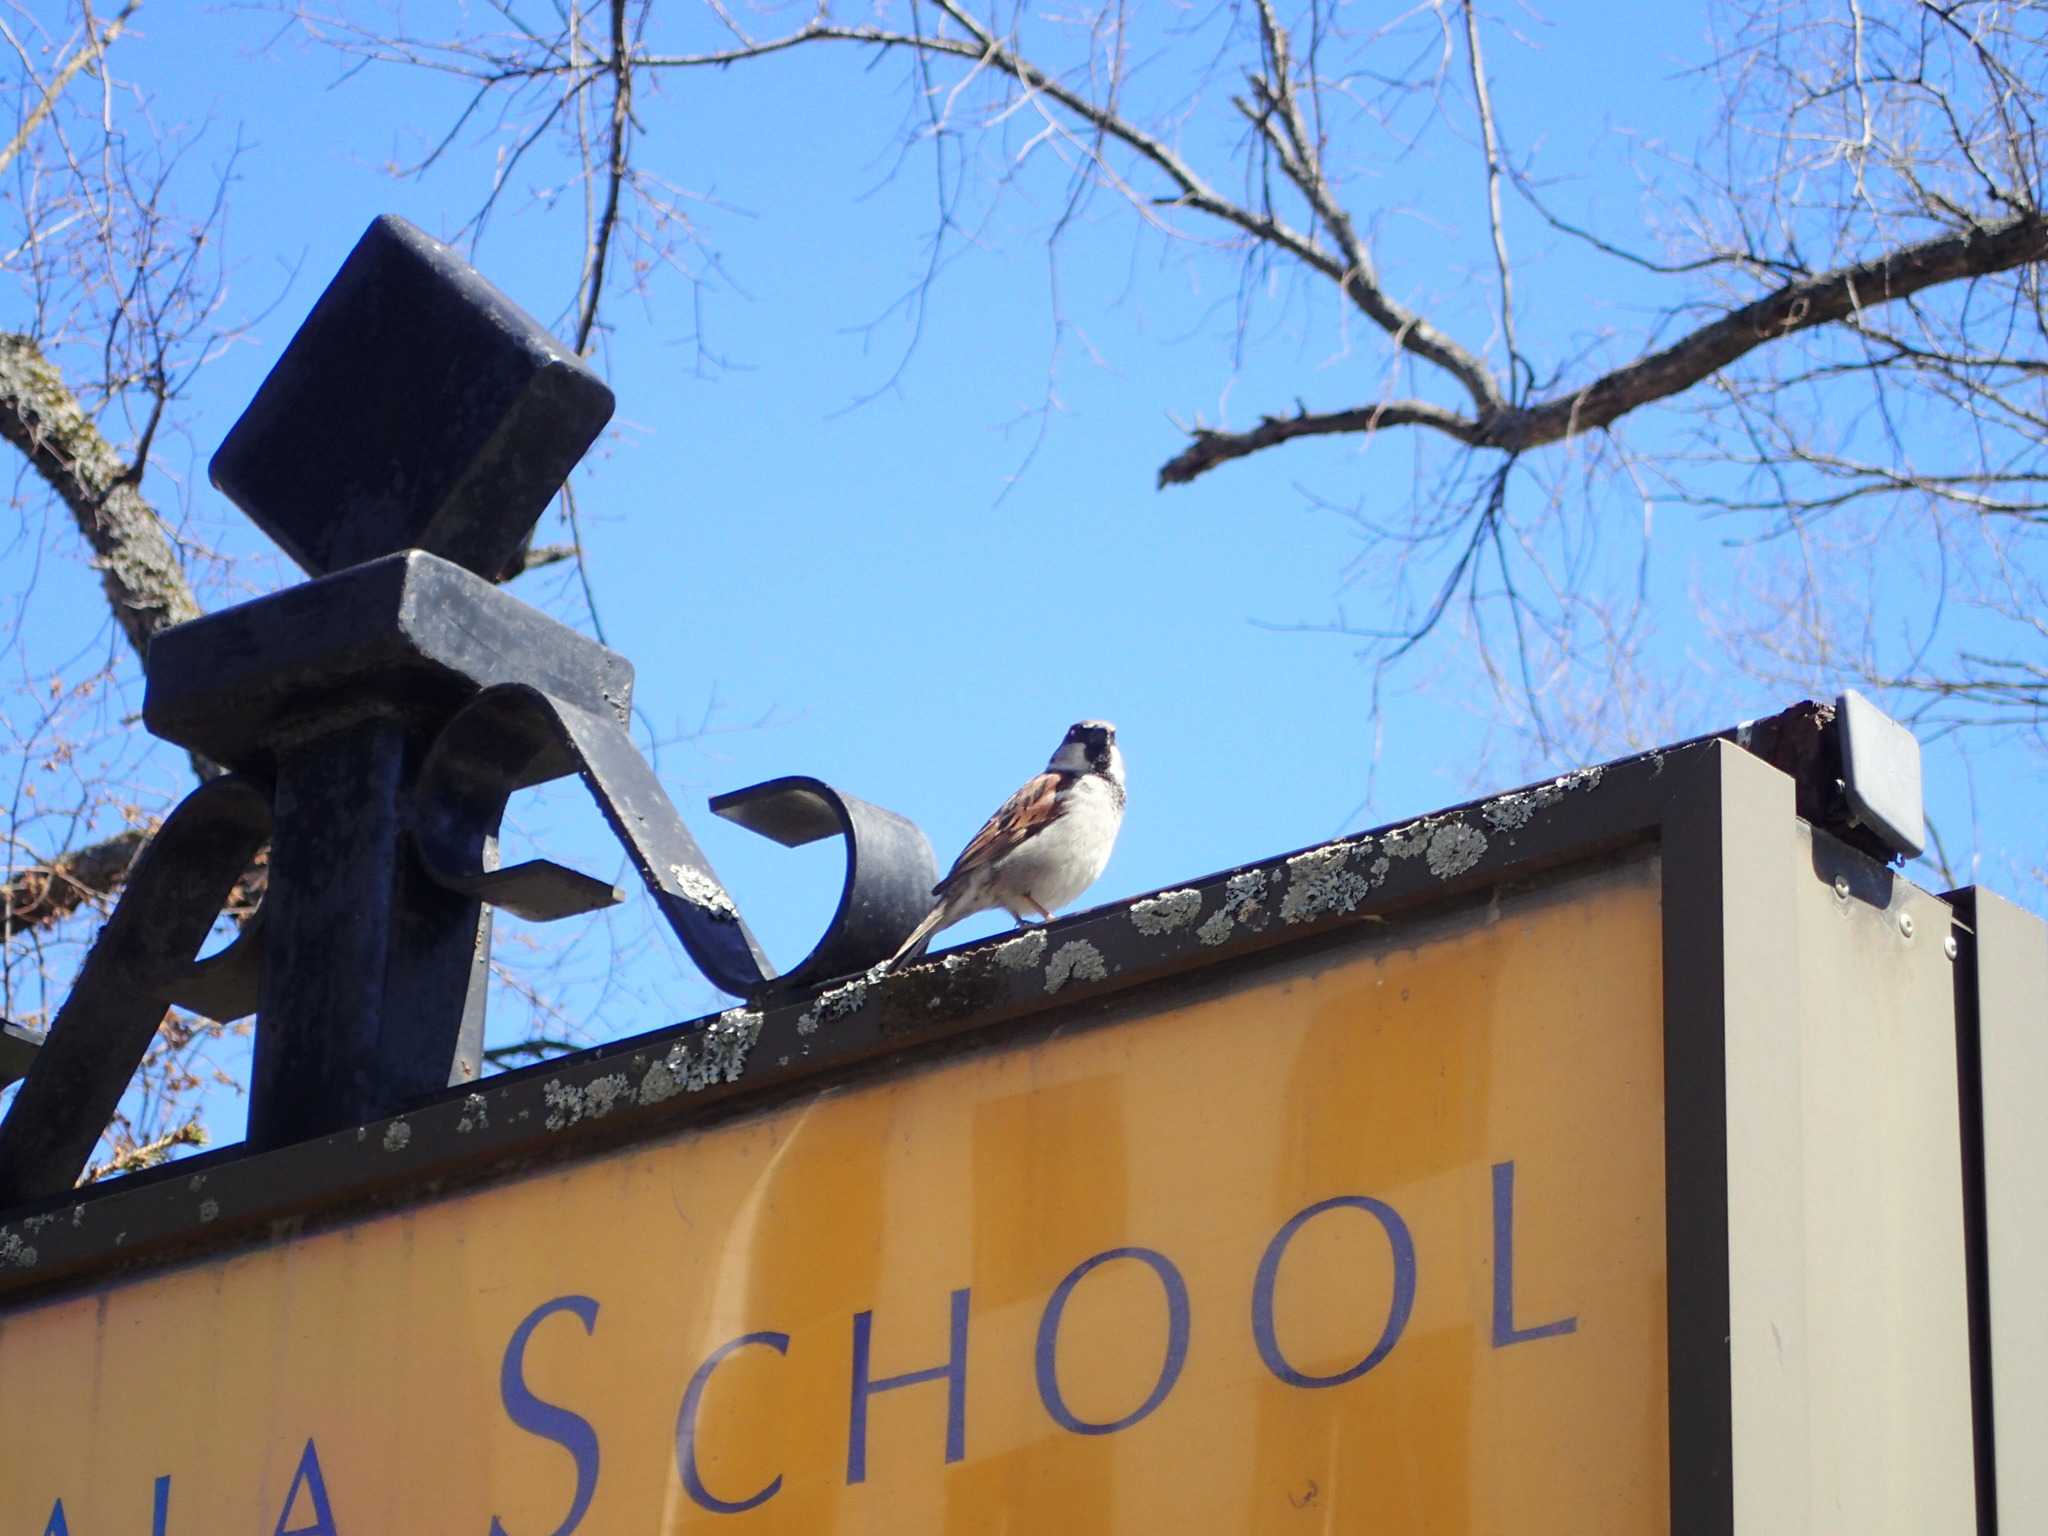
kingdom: Animalia
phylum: Chordata
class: Aves
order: Passeriformes
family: Passeridae
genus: Passer
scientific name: Passer domesticus
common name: House sparrow
